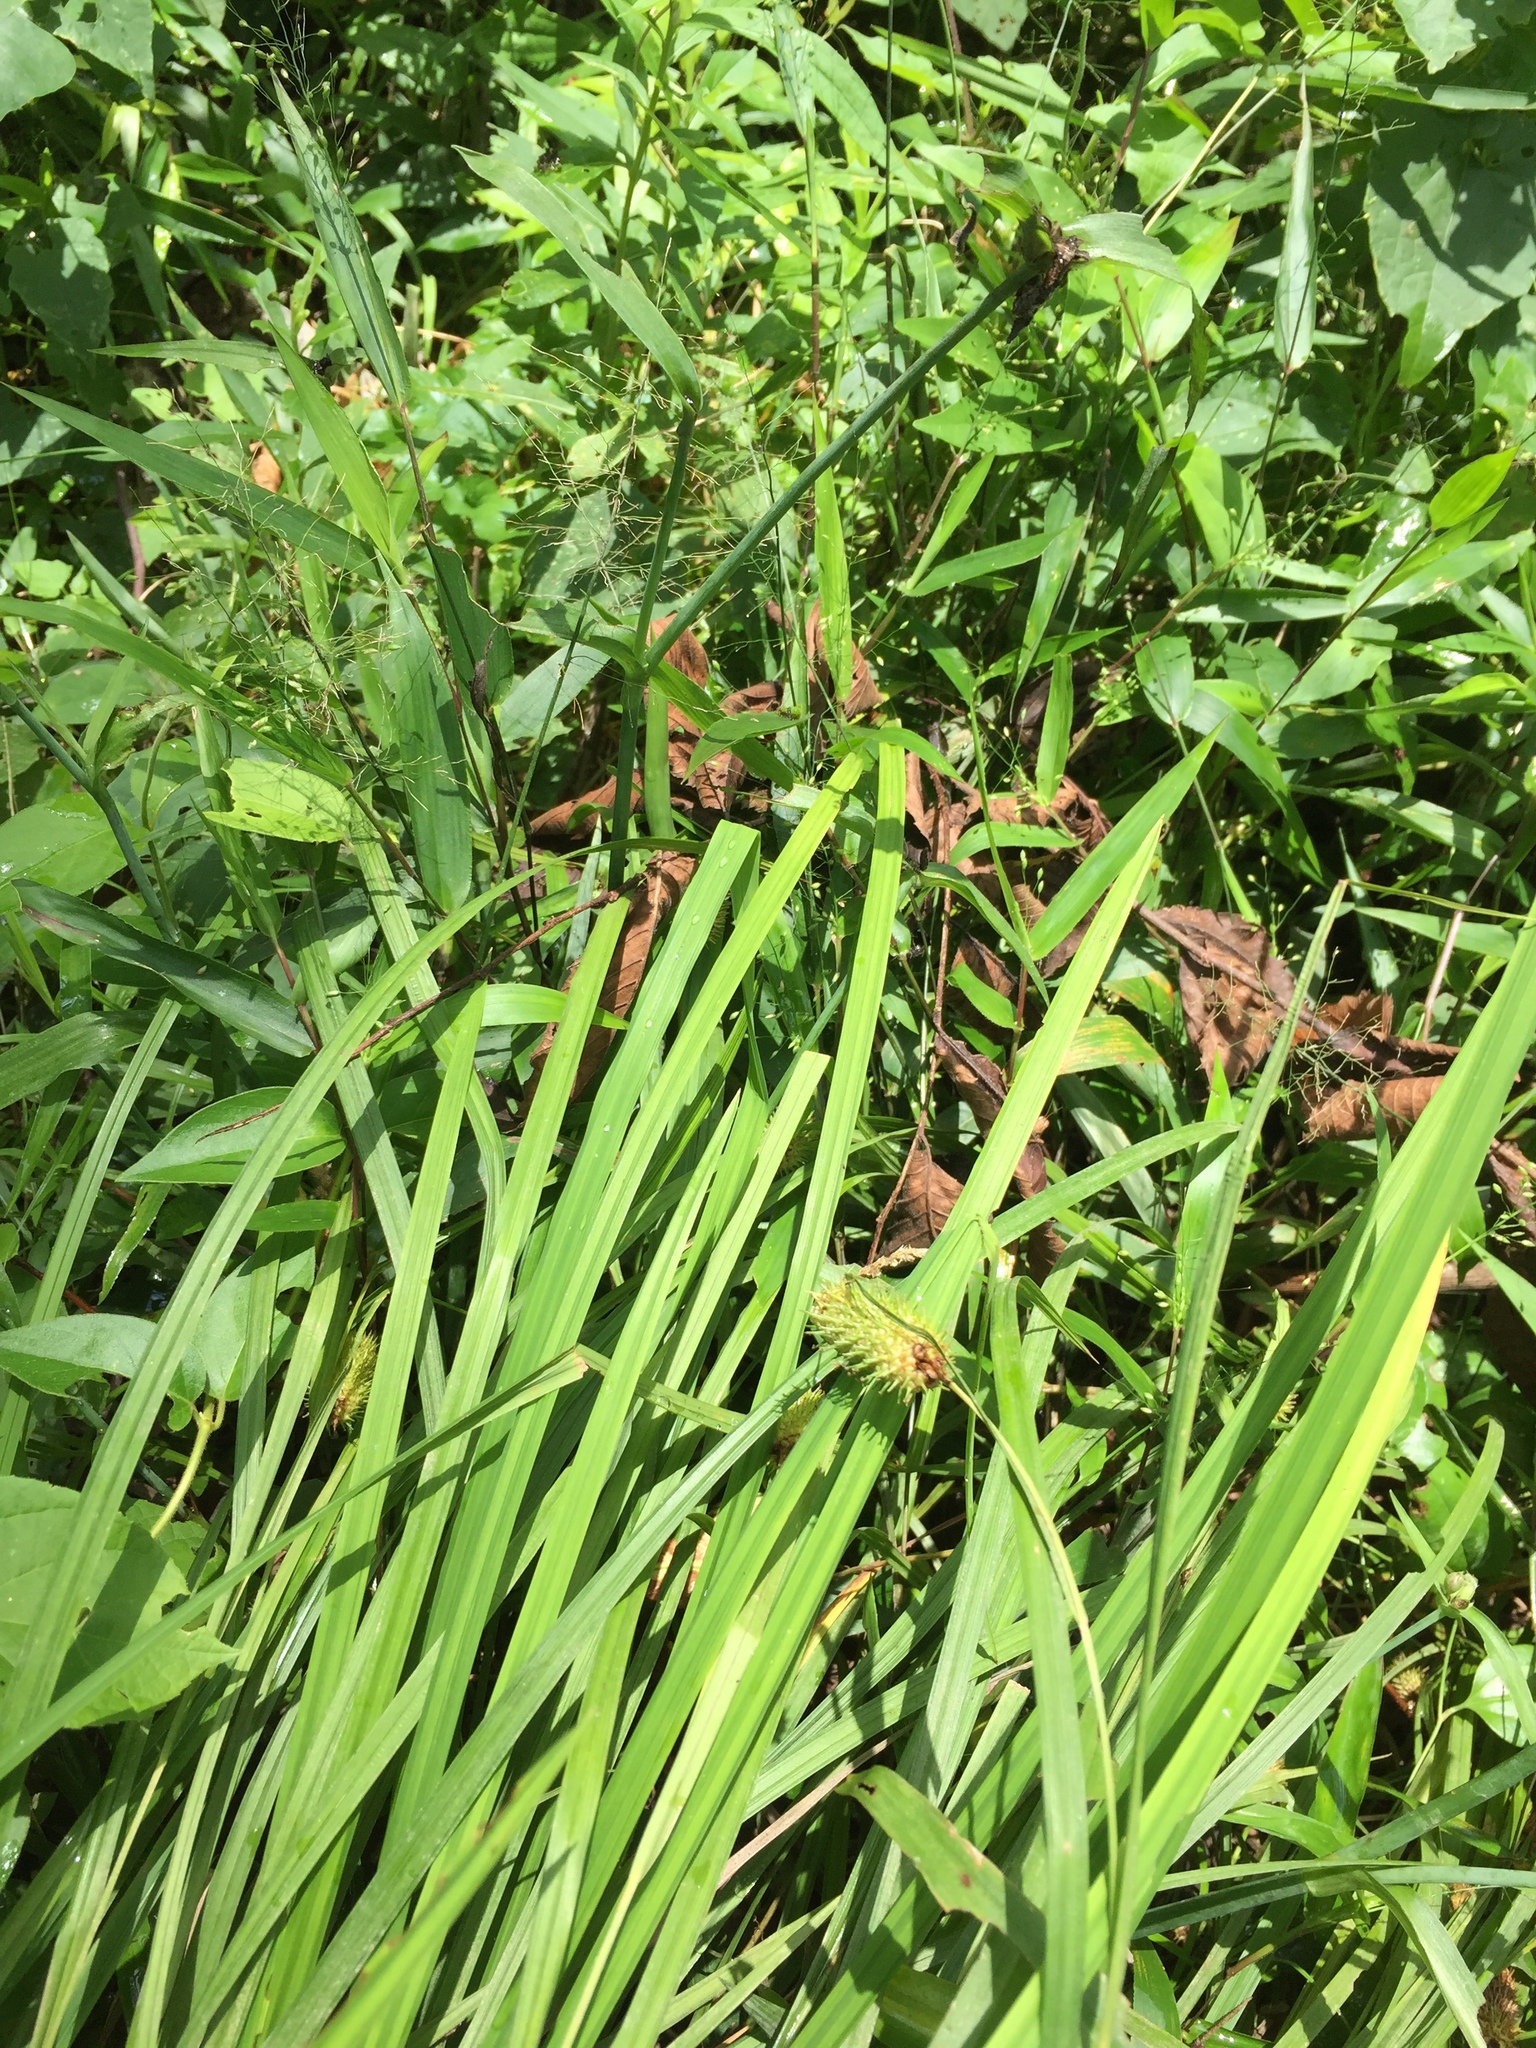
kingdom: Plantae
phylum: Tracheophyta
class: Liliopsida
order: Poales
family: Cyperaceae
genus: Carex
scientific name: Carex typhina
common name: Cattail sedge
